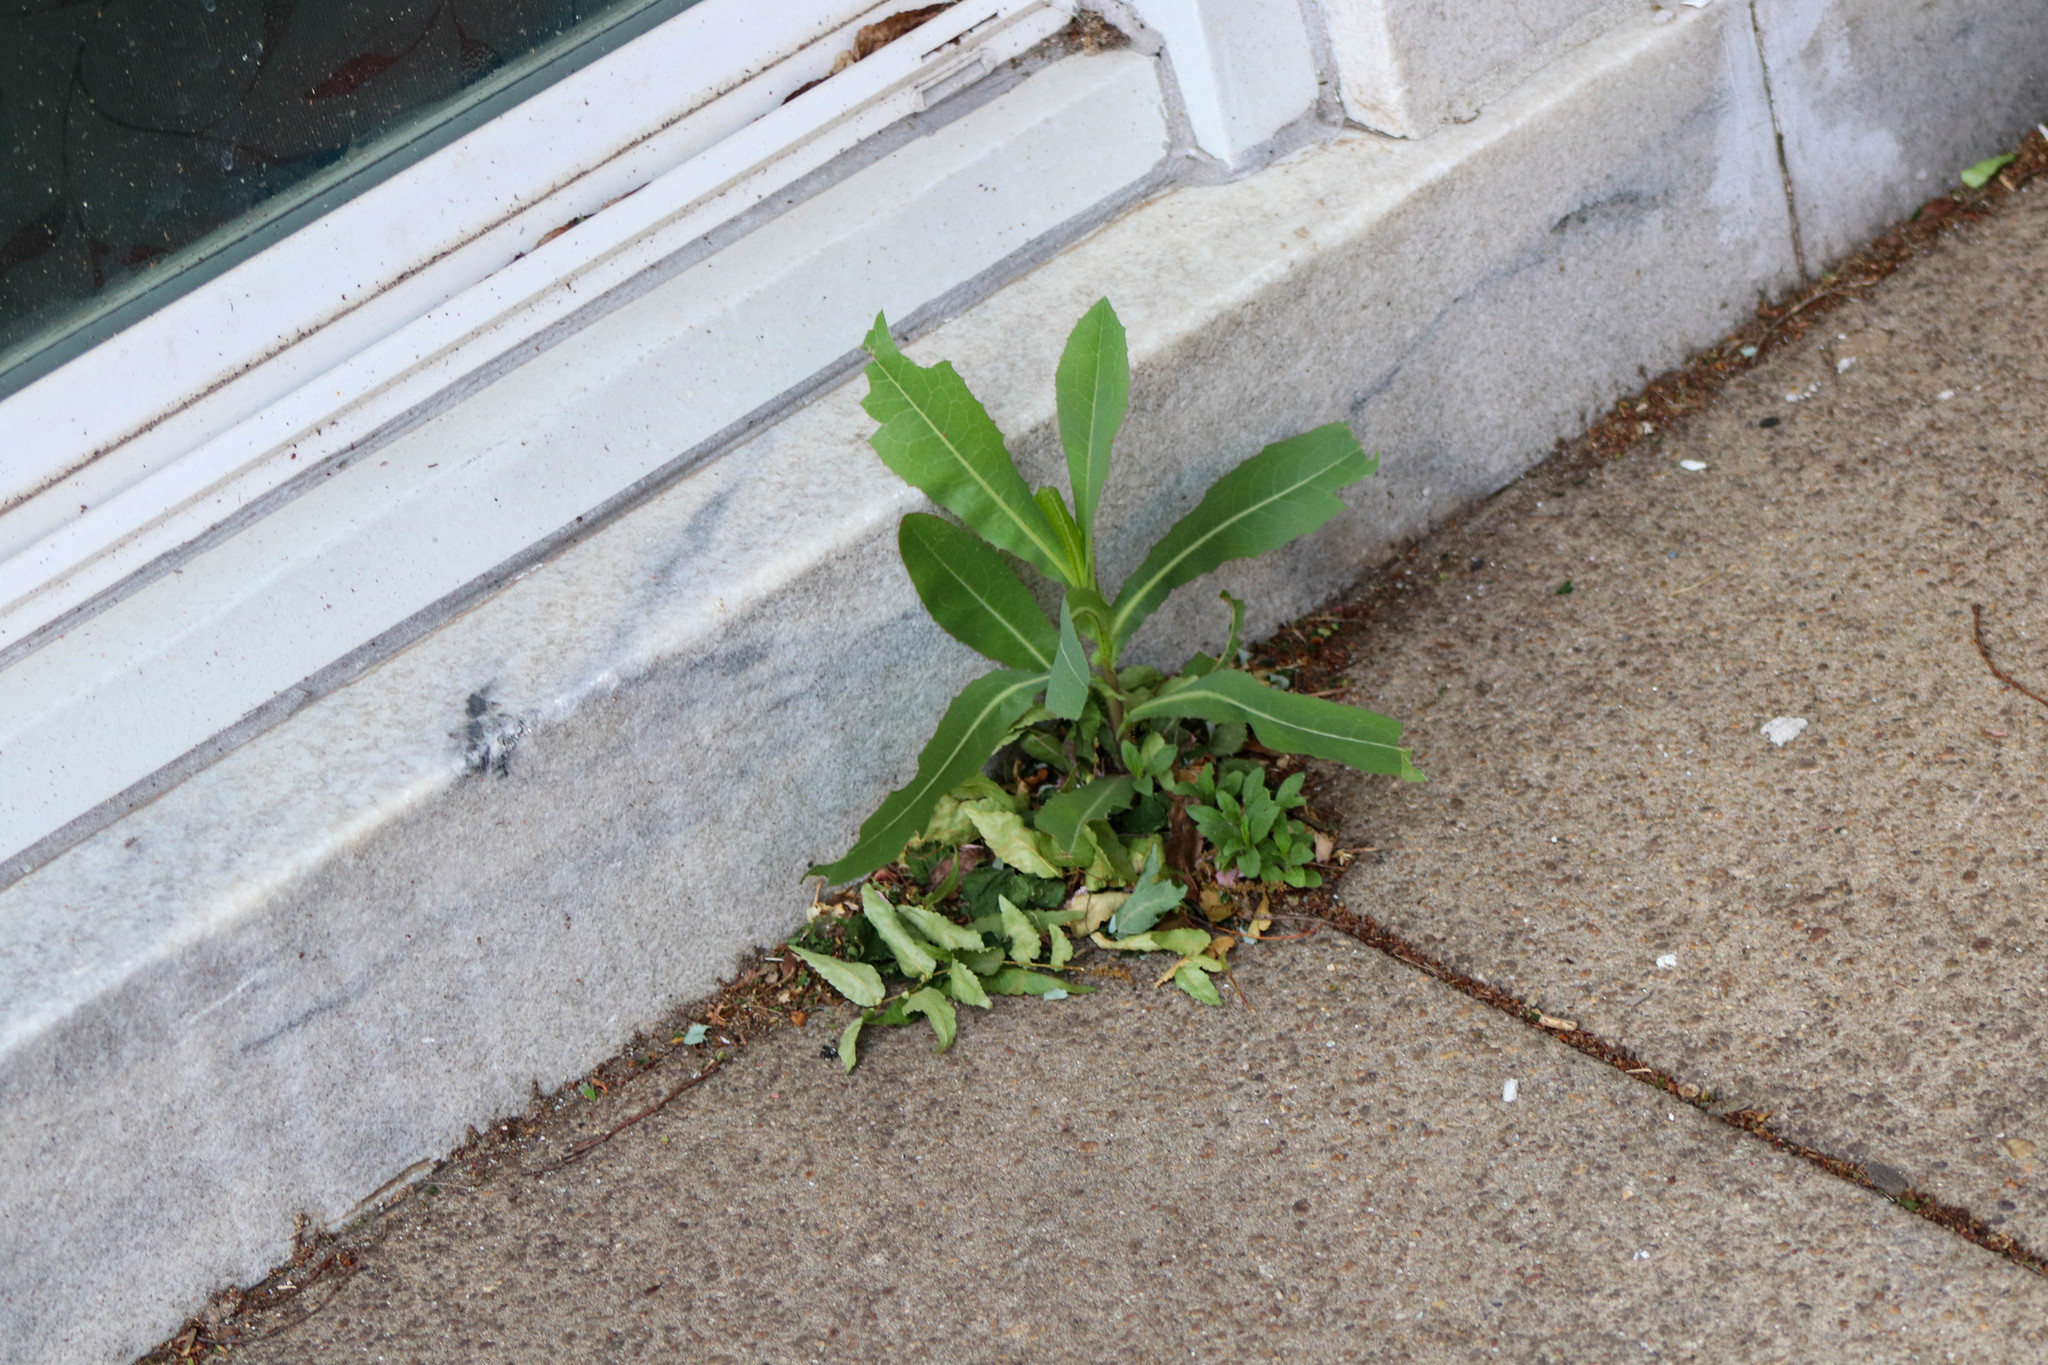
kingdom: Plantae
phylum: Tracheophyta
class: Magnoliopsida
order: Asterales
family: Asteraceae
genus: Lactuca
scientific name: Lactuca serriola
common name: Prickly lettuce
